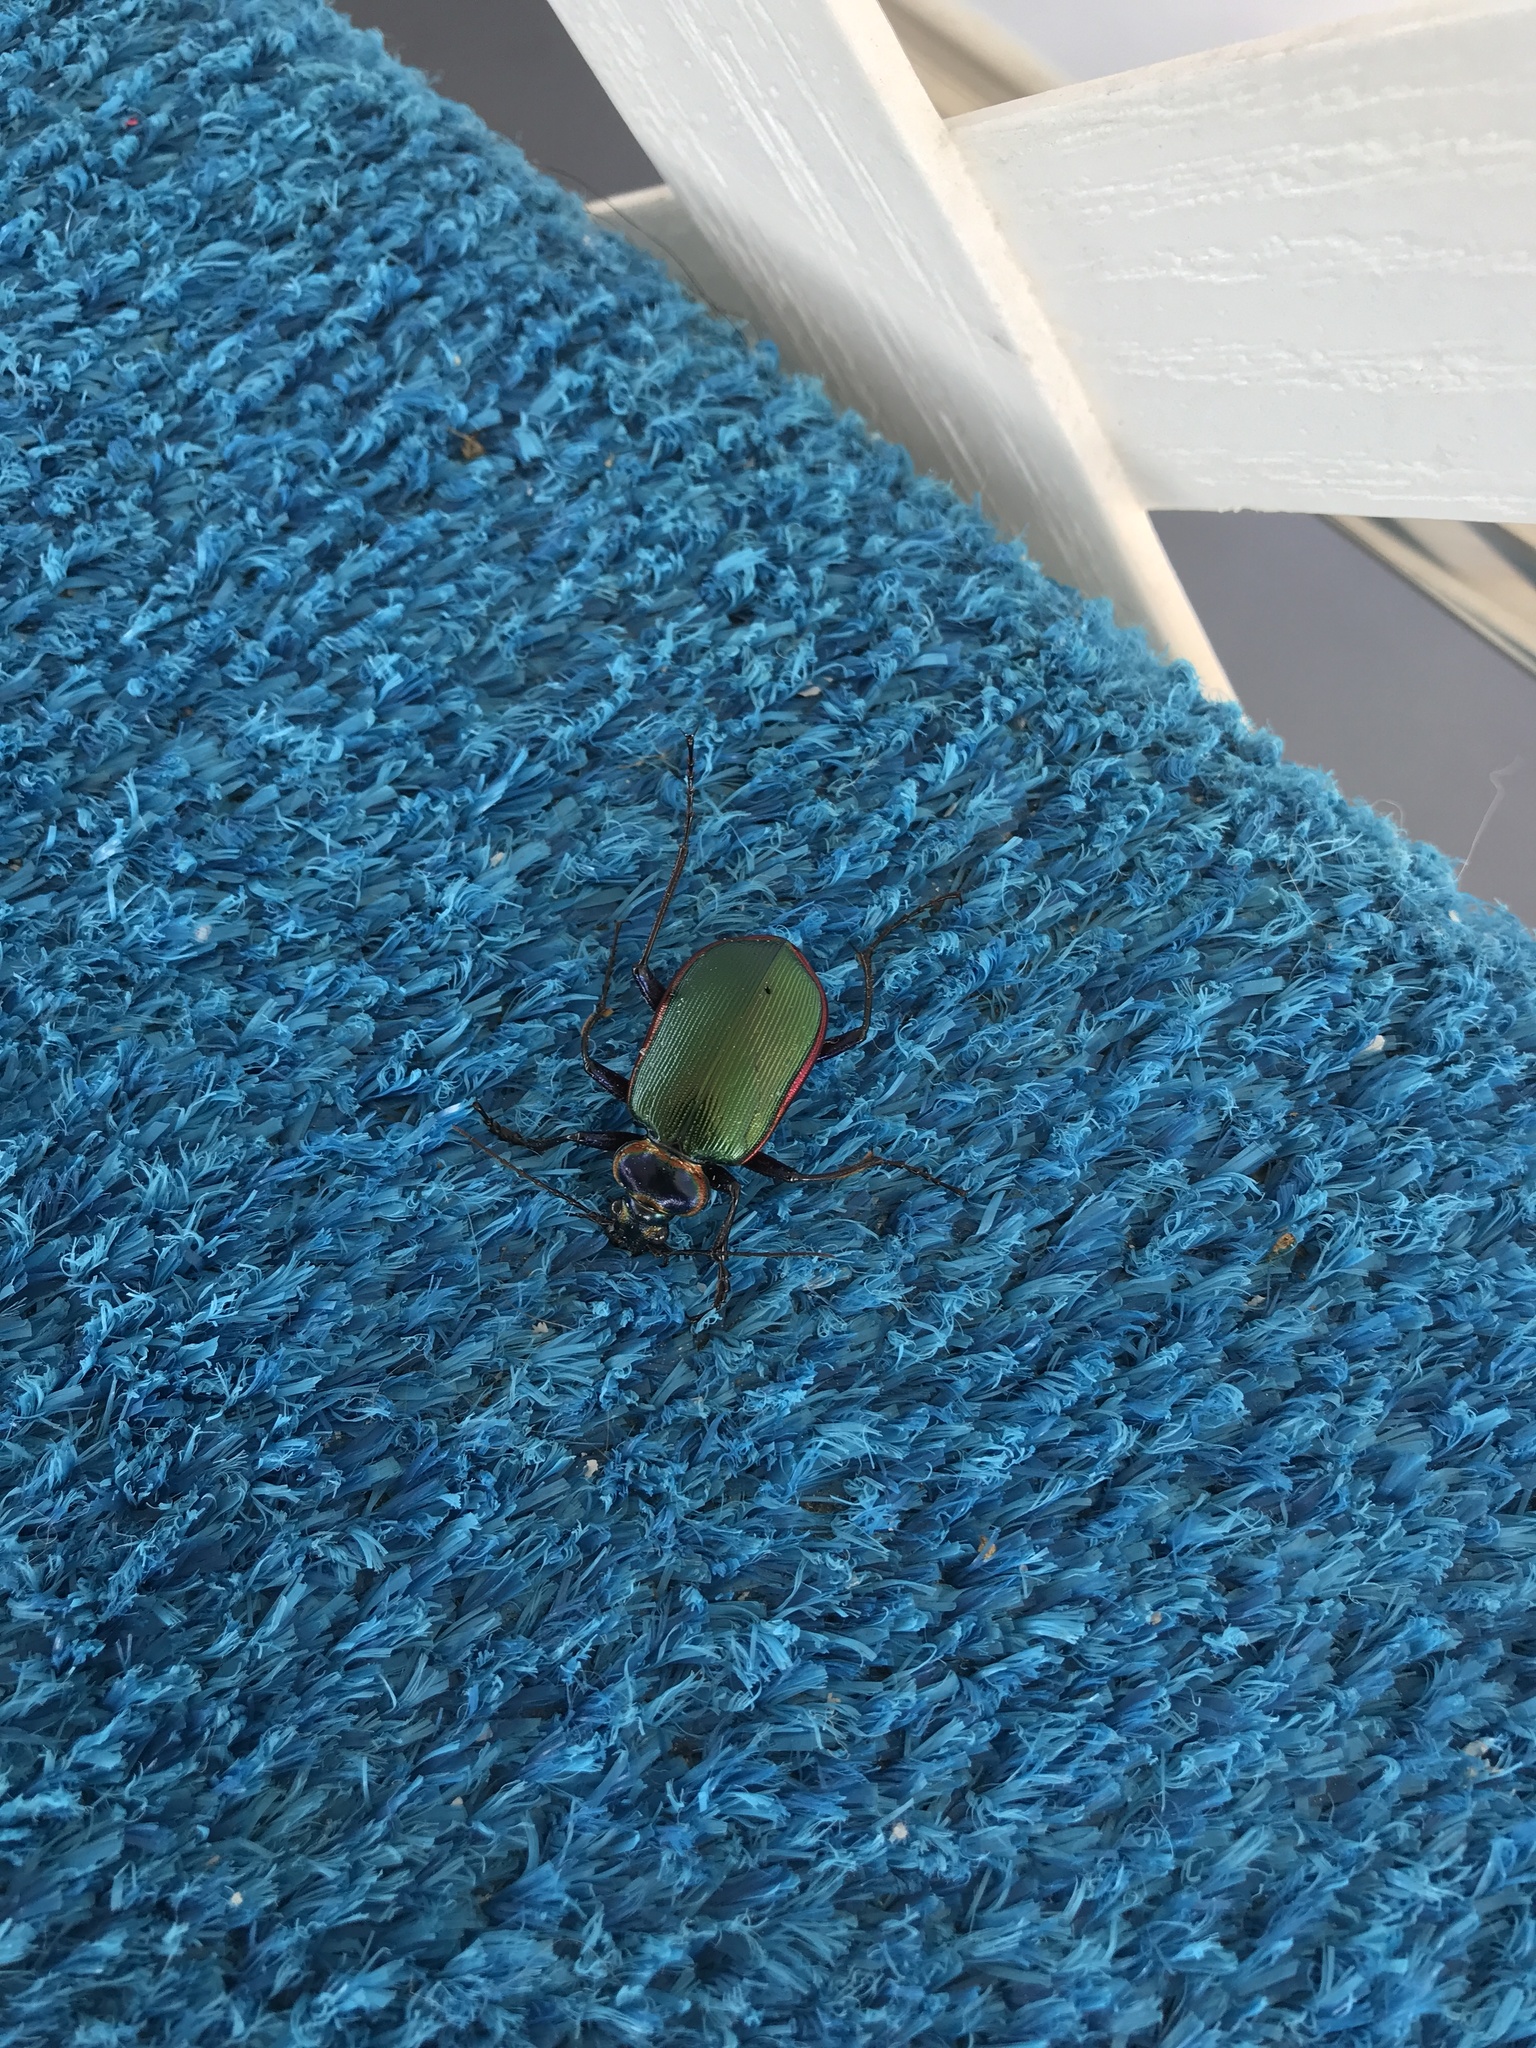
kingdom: Animalia
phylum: Arthropoda
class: Insecta
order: Coleoptera
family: Carabidae
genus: Calosoma
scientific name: Calosoma scrutator
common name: Fiery searcher beetle
